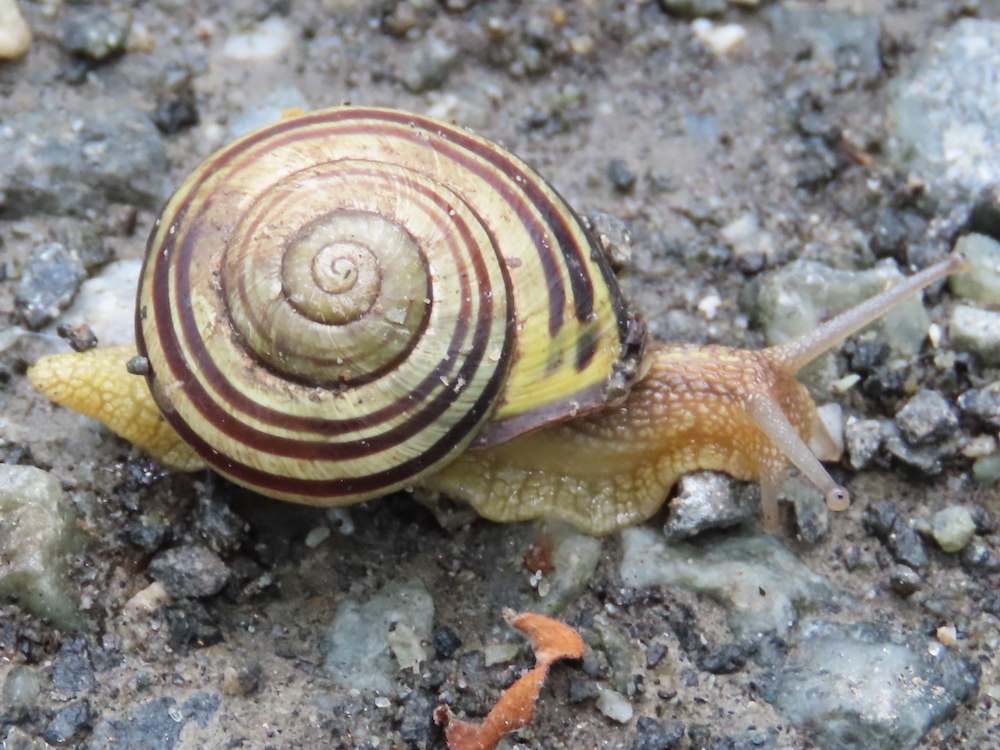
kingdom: Animalia
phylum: Mollusca
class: Gastropoda
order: Stylommatophora
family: Helicidae
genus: Cepaea
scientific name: Cepaea nemoralis
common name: Grovesnail
